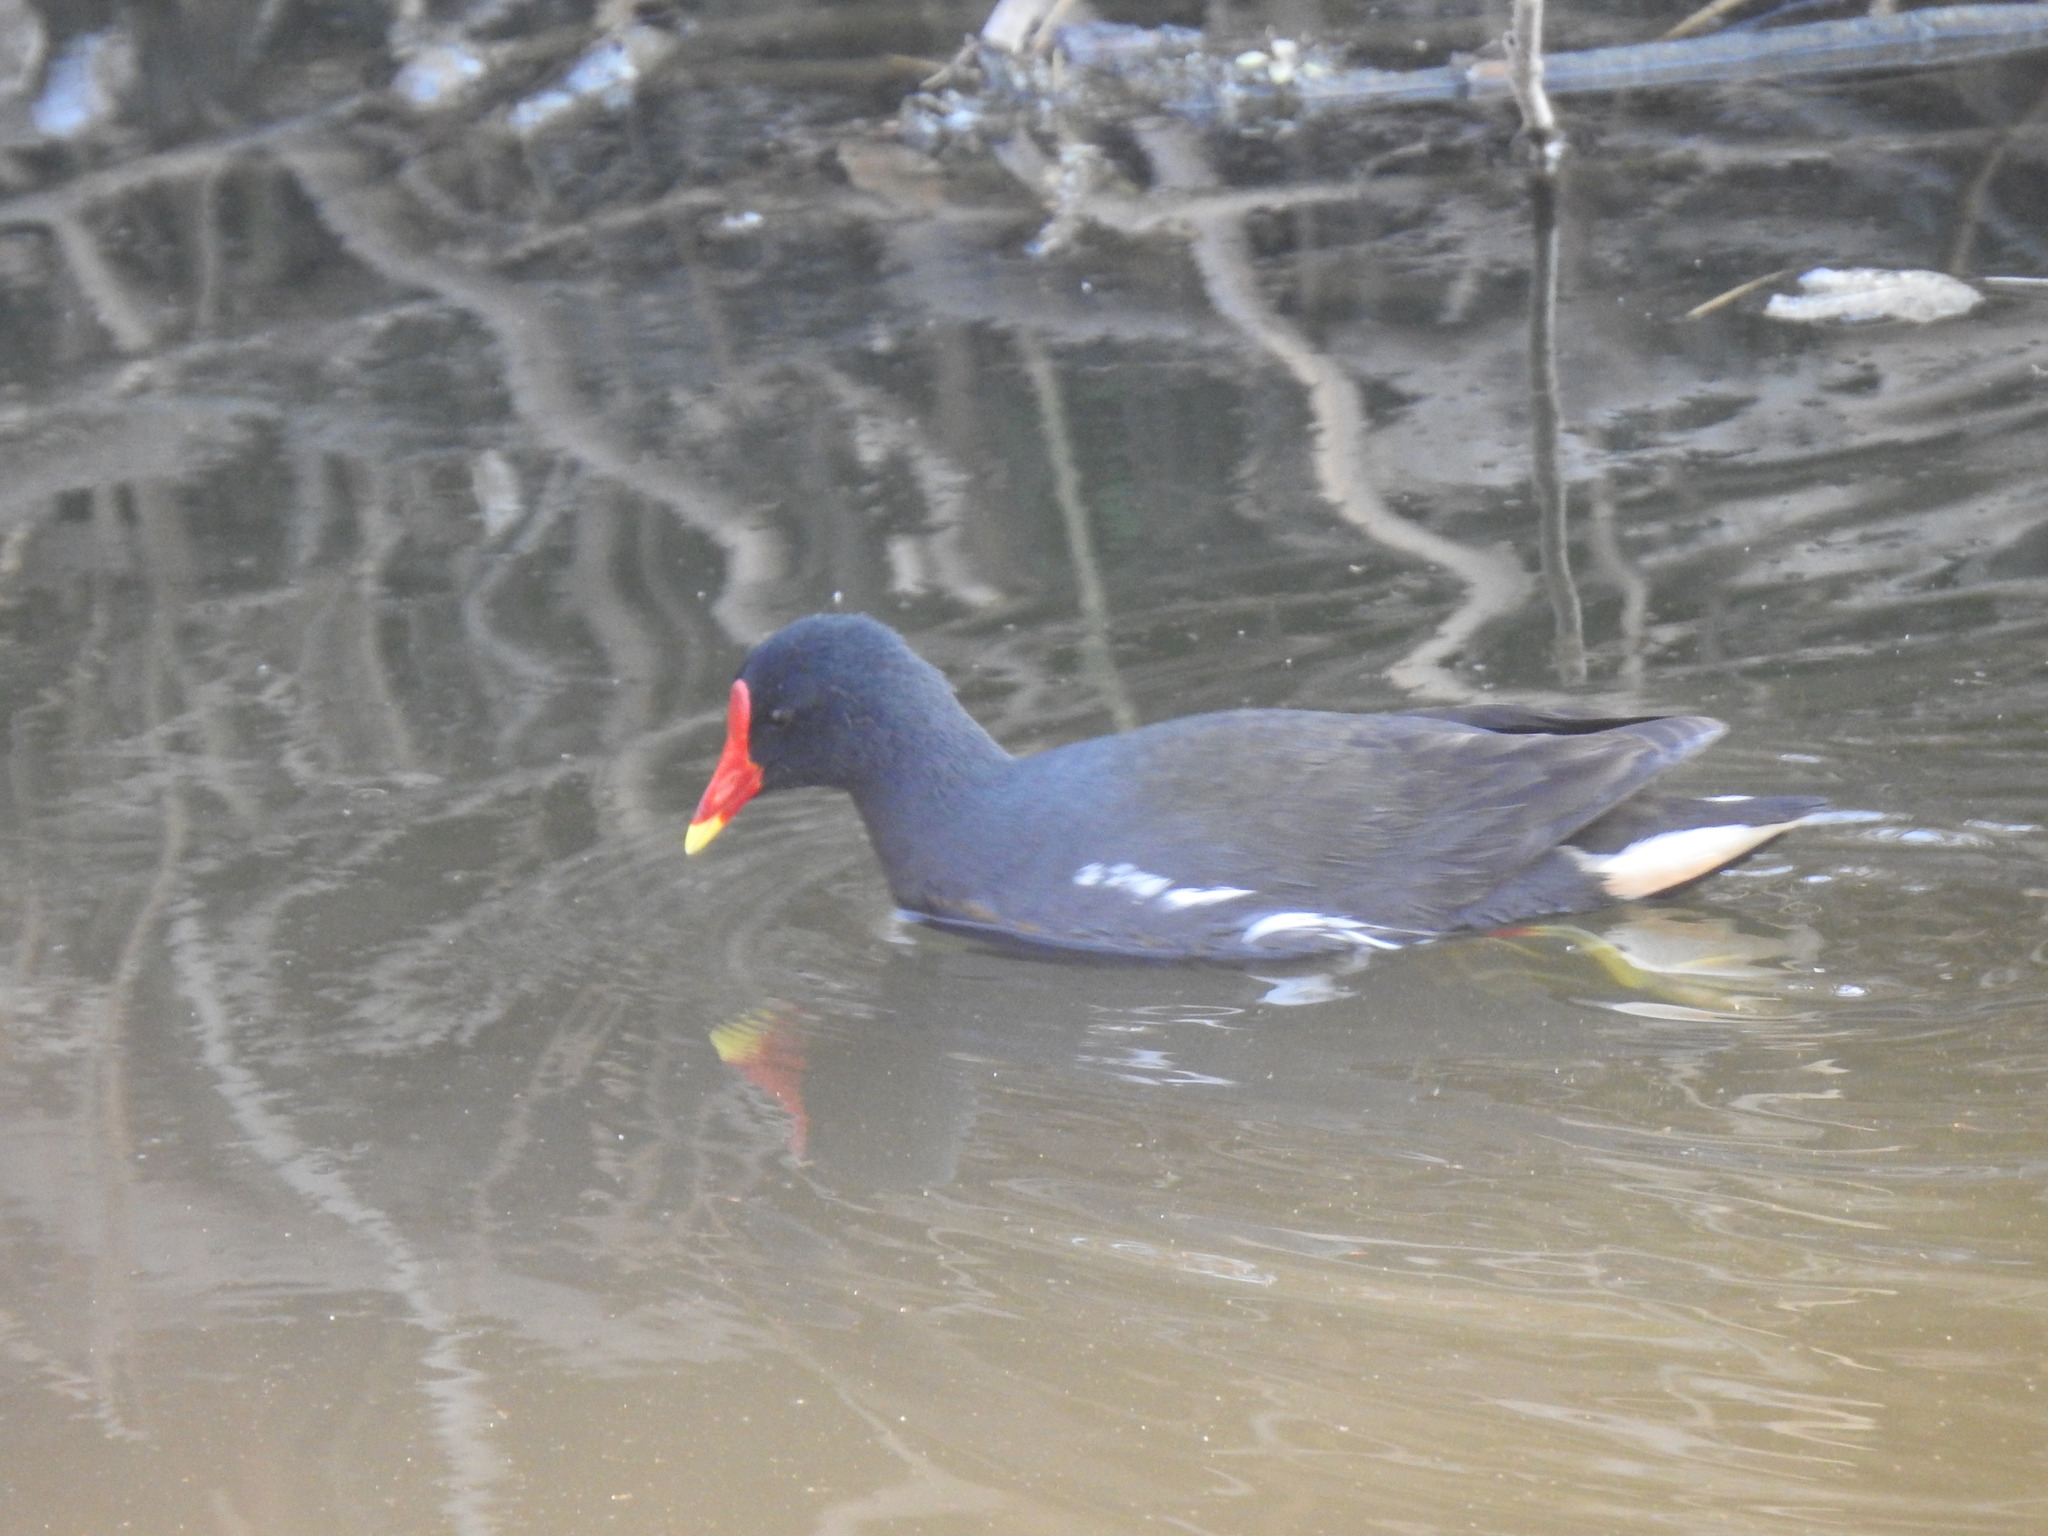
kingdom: Animalia
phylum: Chordata
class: Aves
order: Gruiformes
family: Rallidae
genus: Gallinula
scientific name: Gallinula chloropus
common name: Common moorhen
